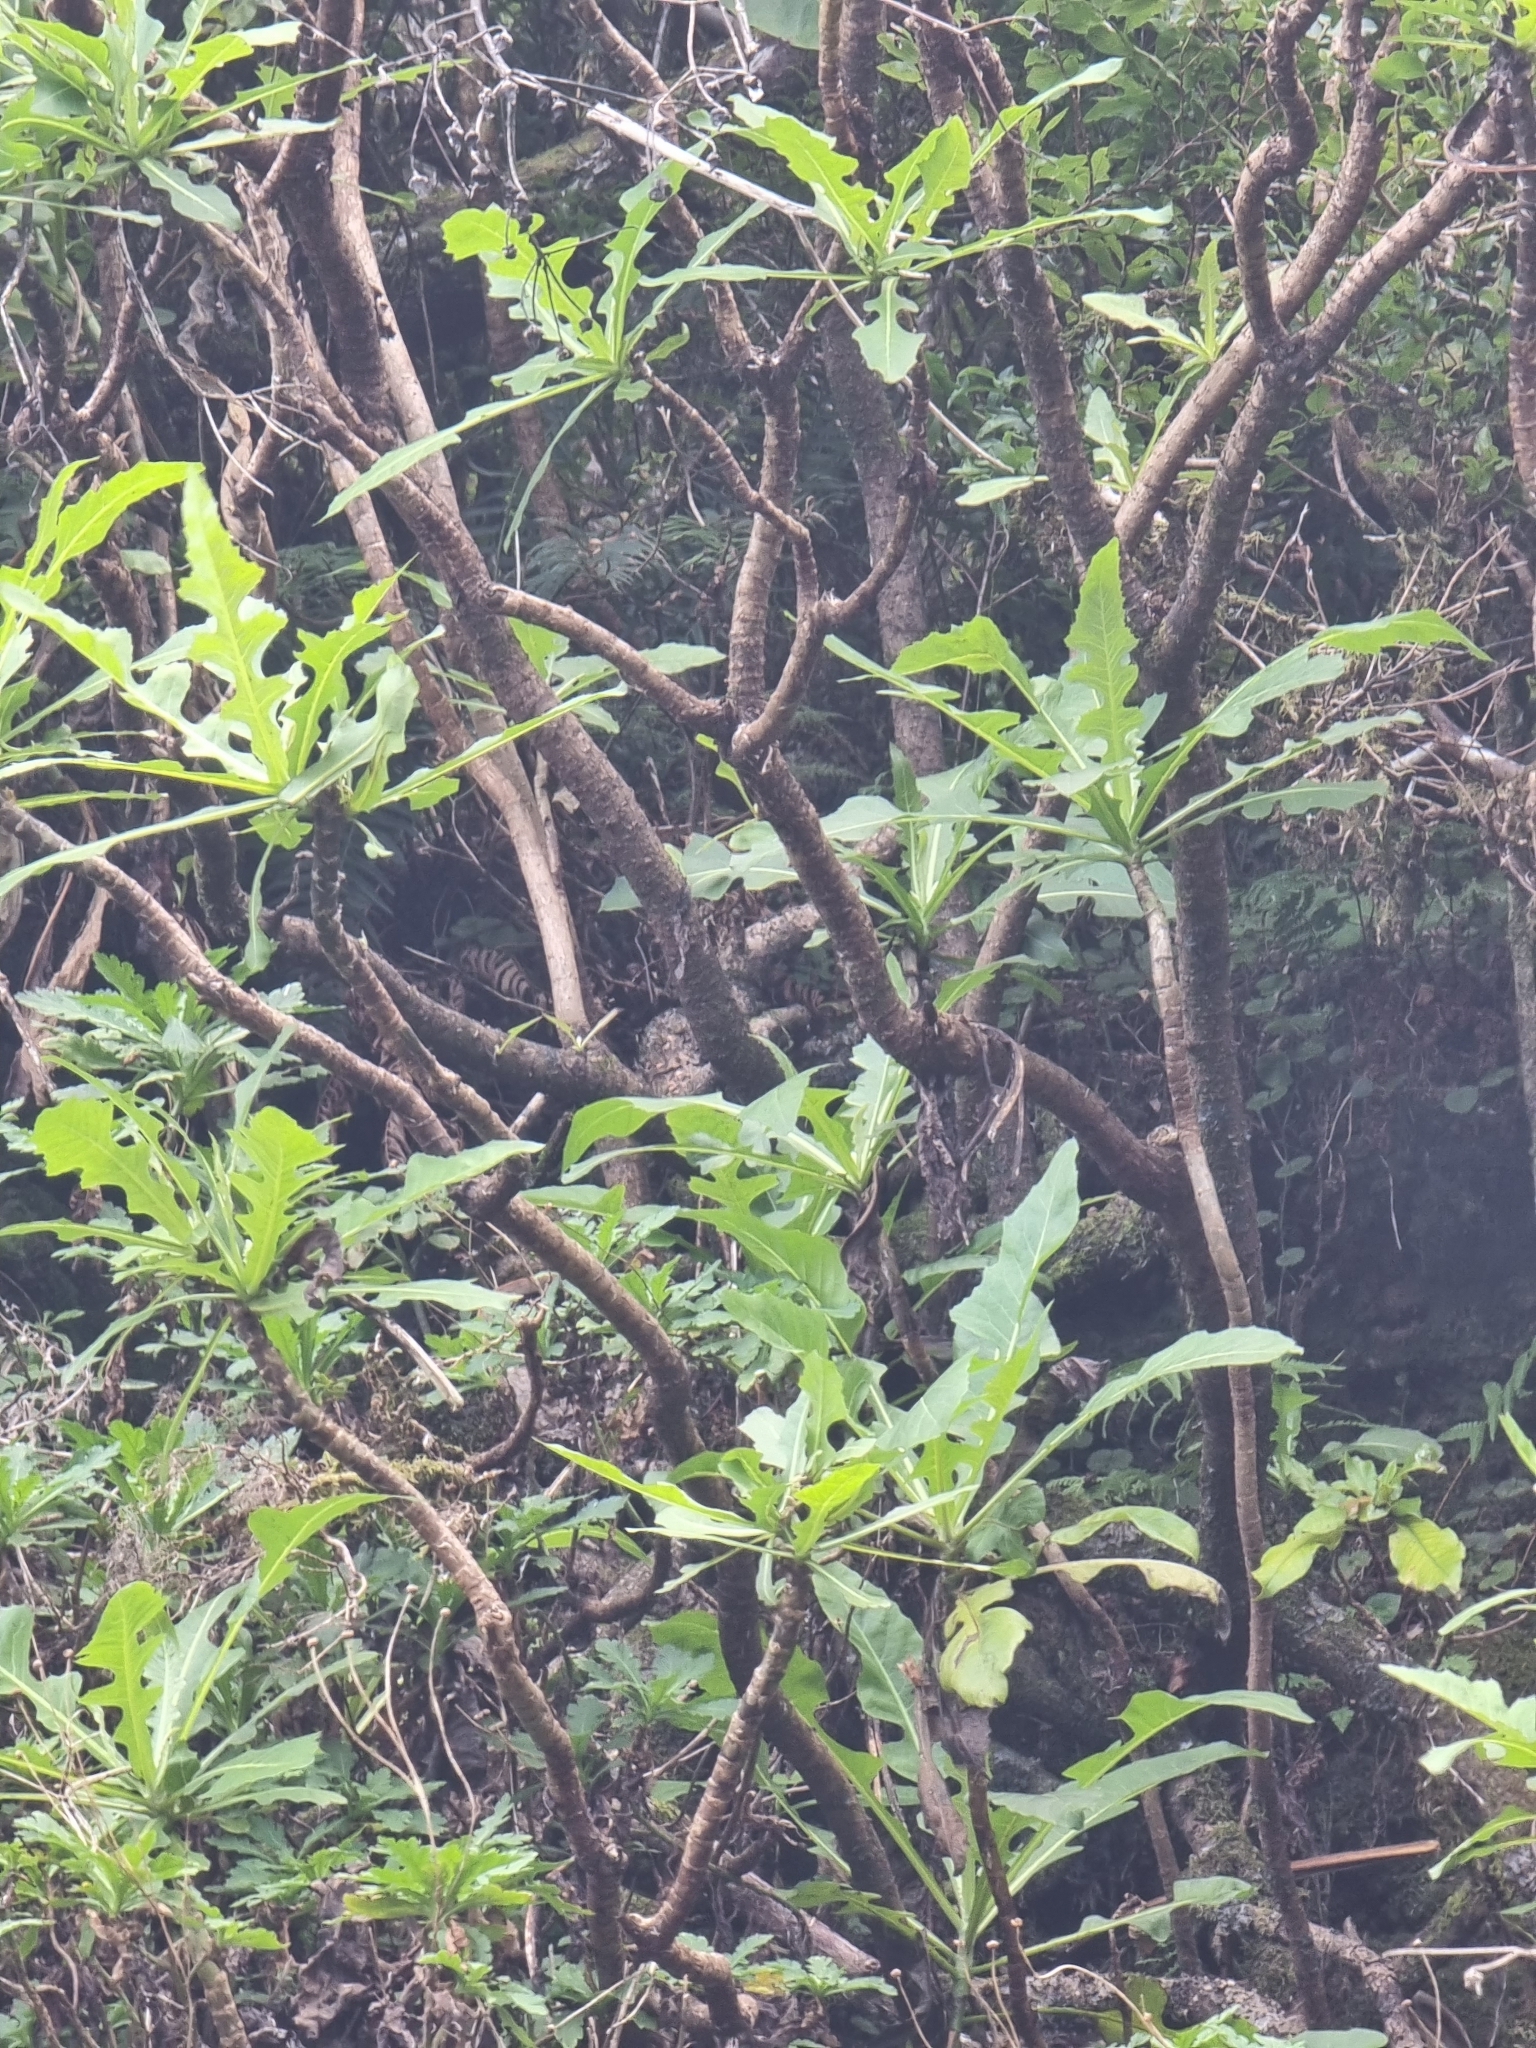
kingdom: Plantae
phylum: Tracheophyta
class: Magnoliopsida
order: Asterales
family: Asteraceae
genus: Sonchus
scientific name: Sonchus fruticosus
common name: Shrubby sow-thistle
